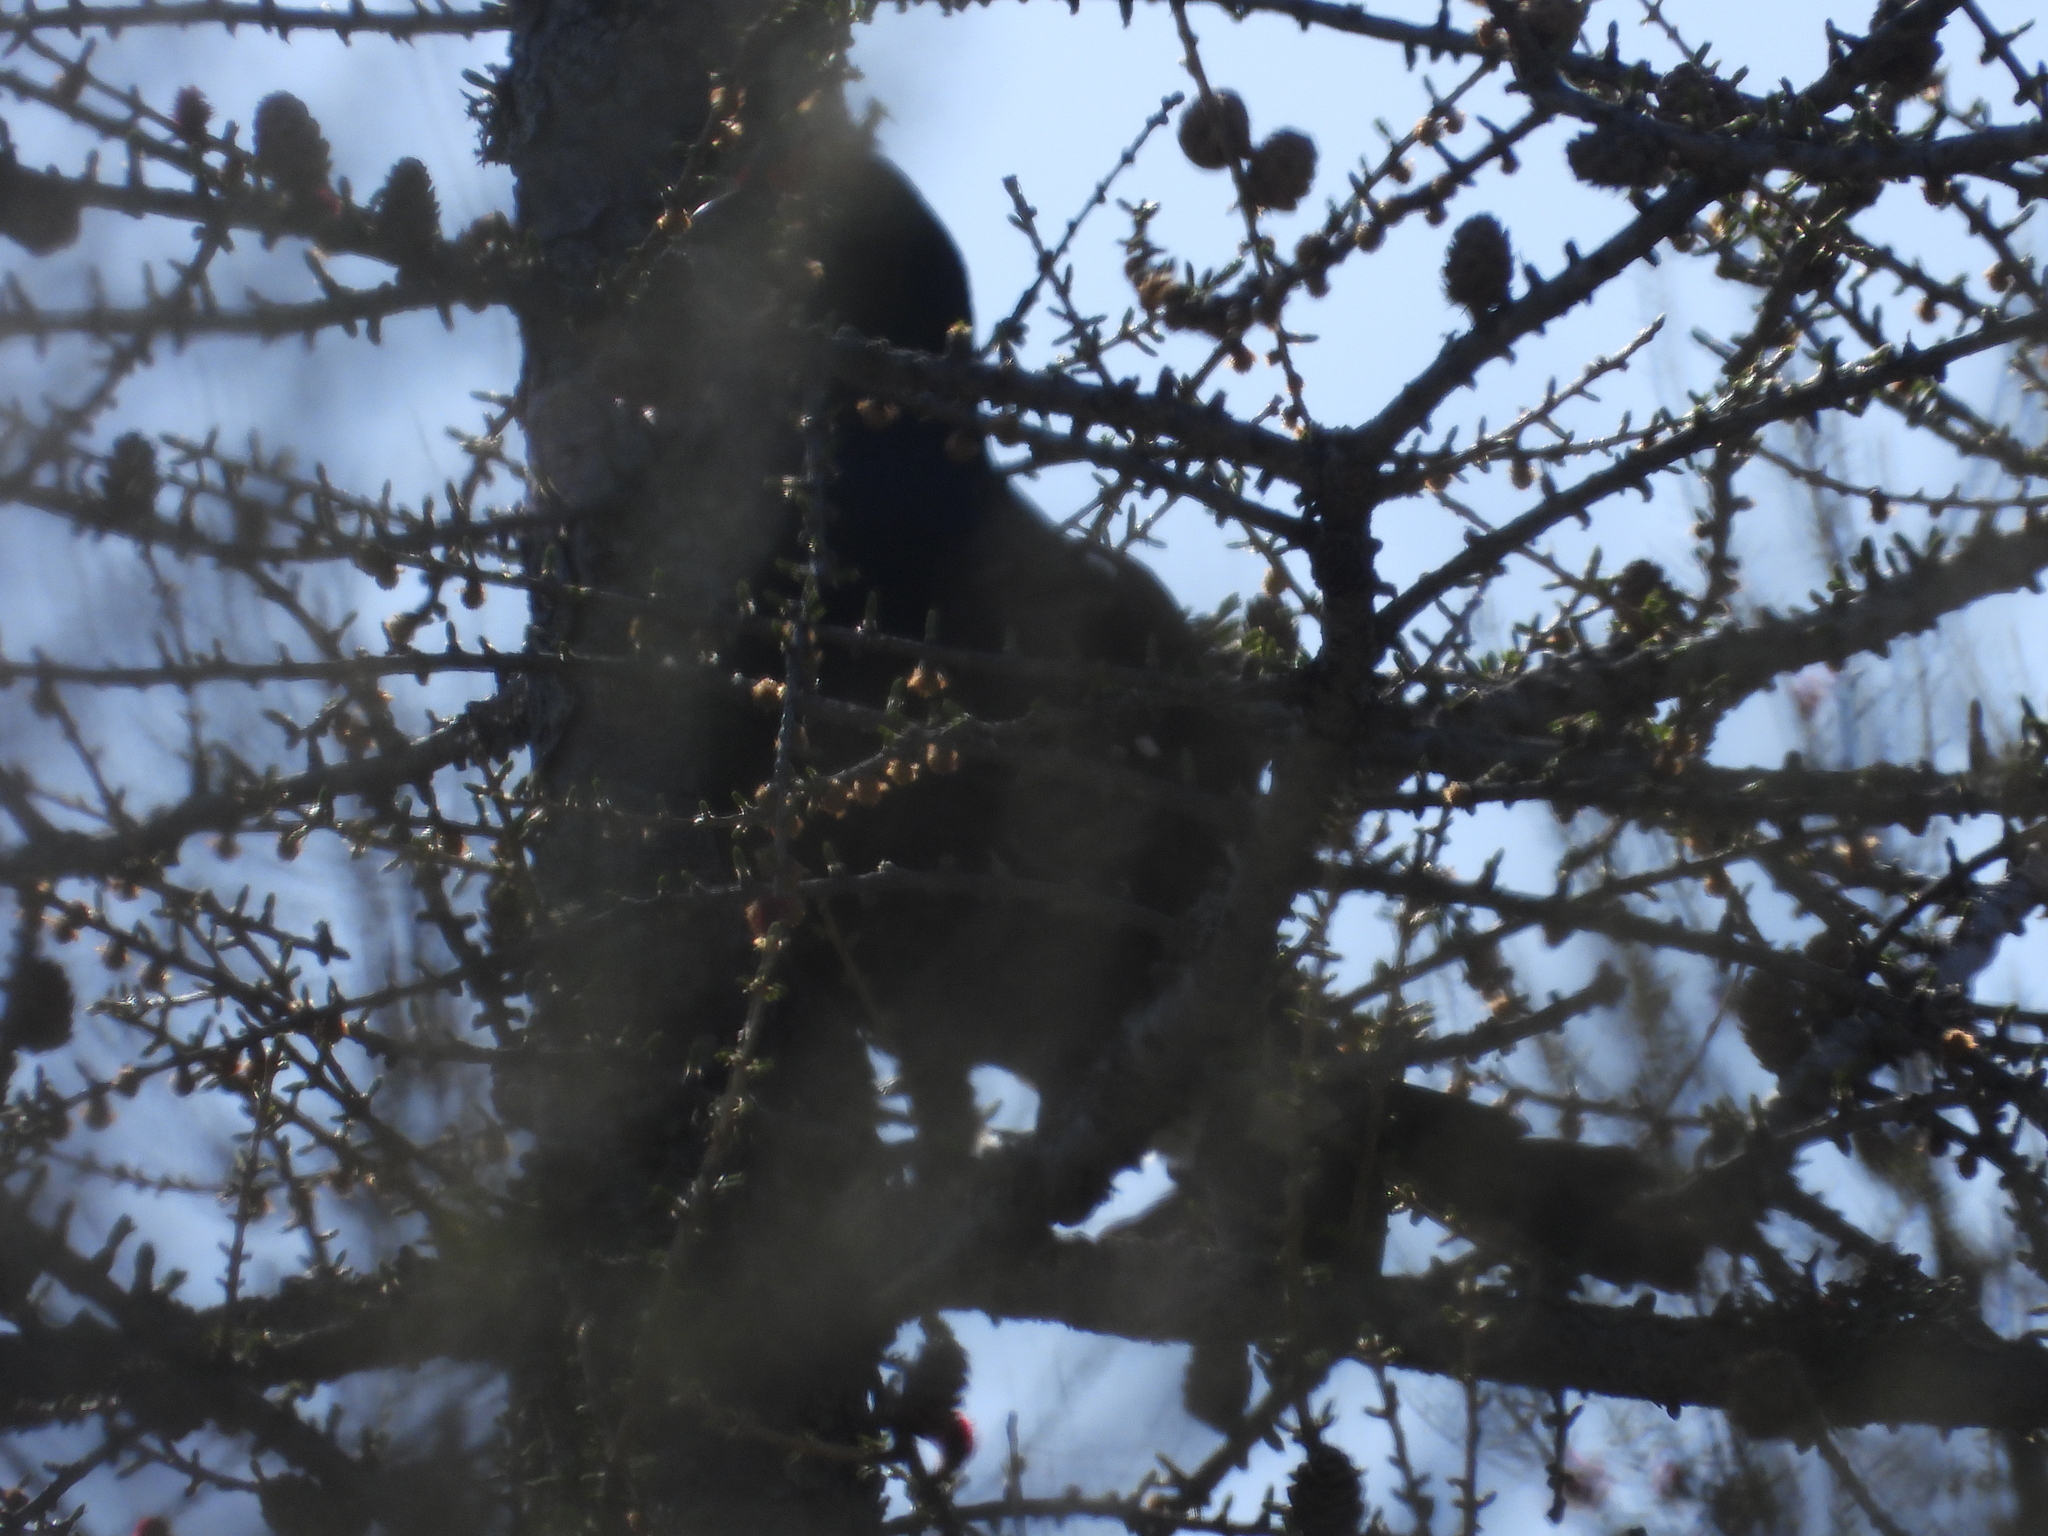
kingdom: Animalia
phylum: Chordata
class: Aves
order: Galliformes
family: Phasianidae
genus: Lyrurus
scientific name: Lyrurus tetrix
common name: Black grouse
